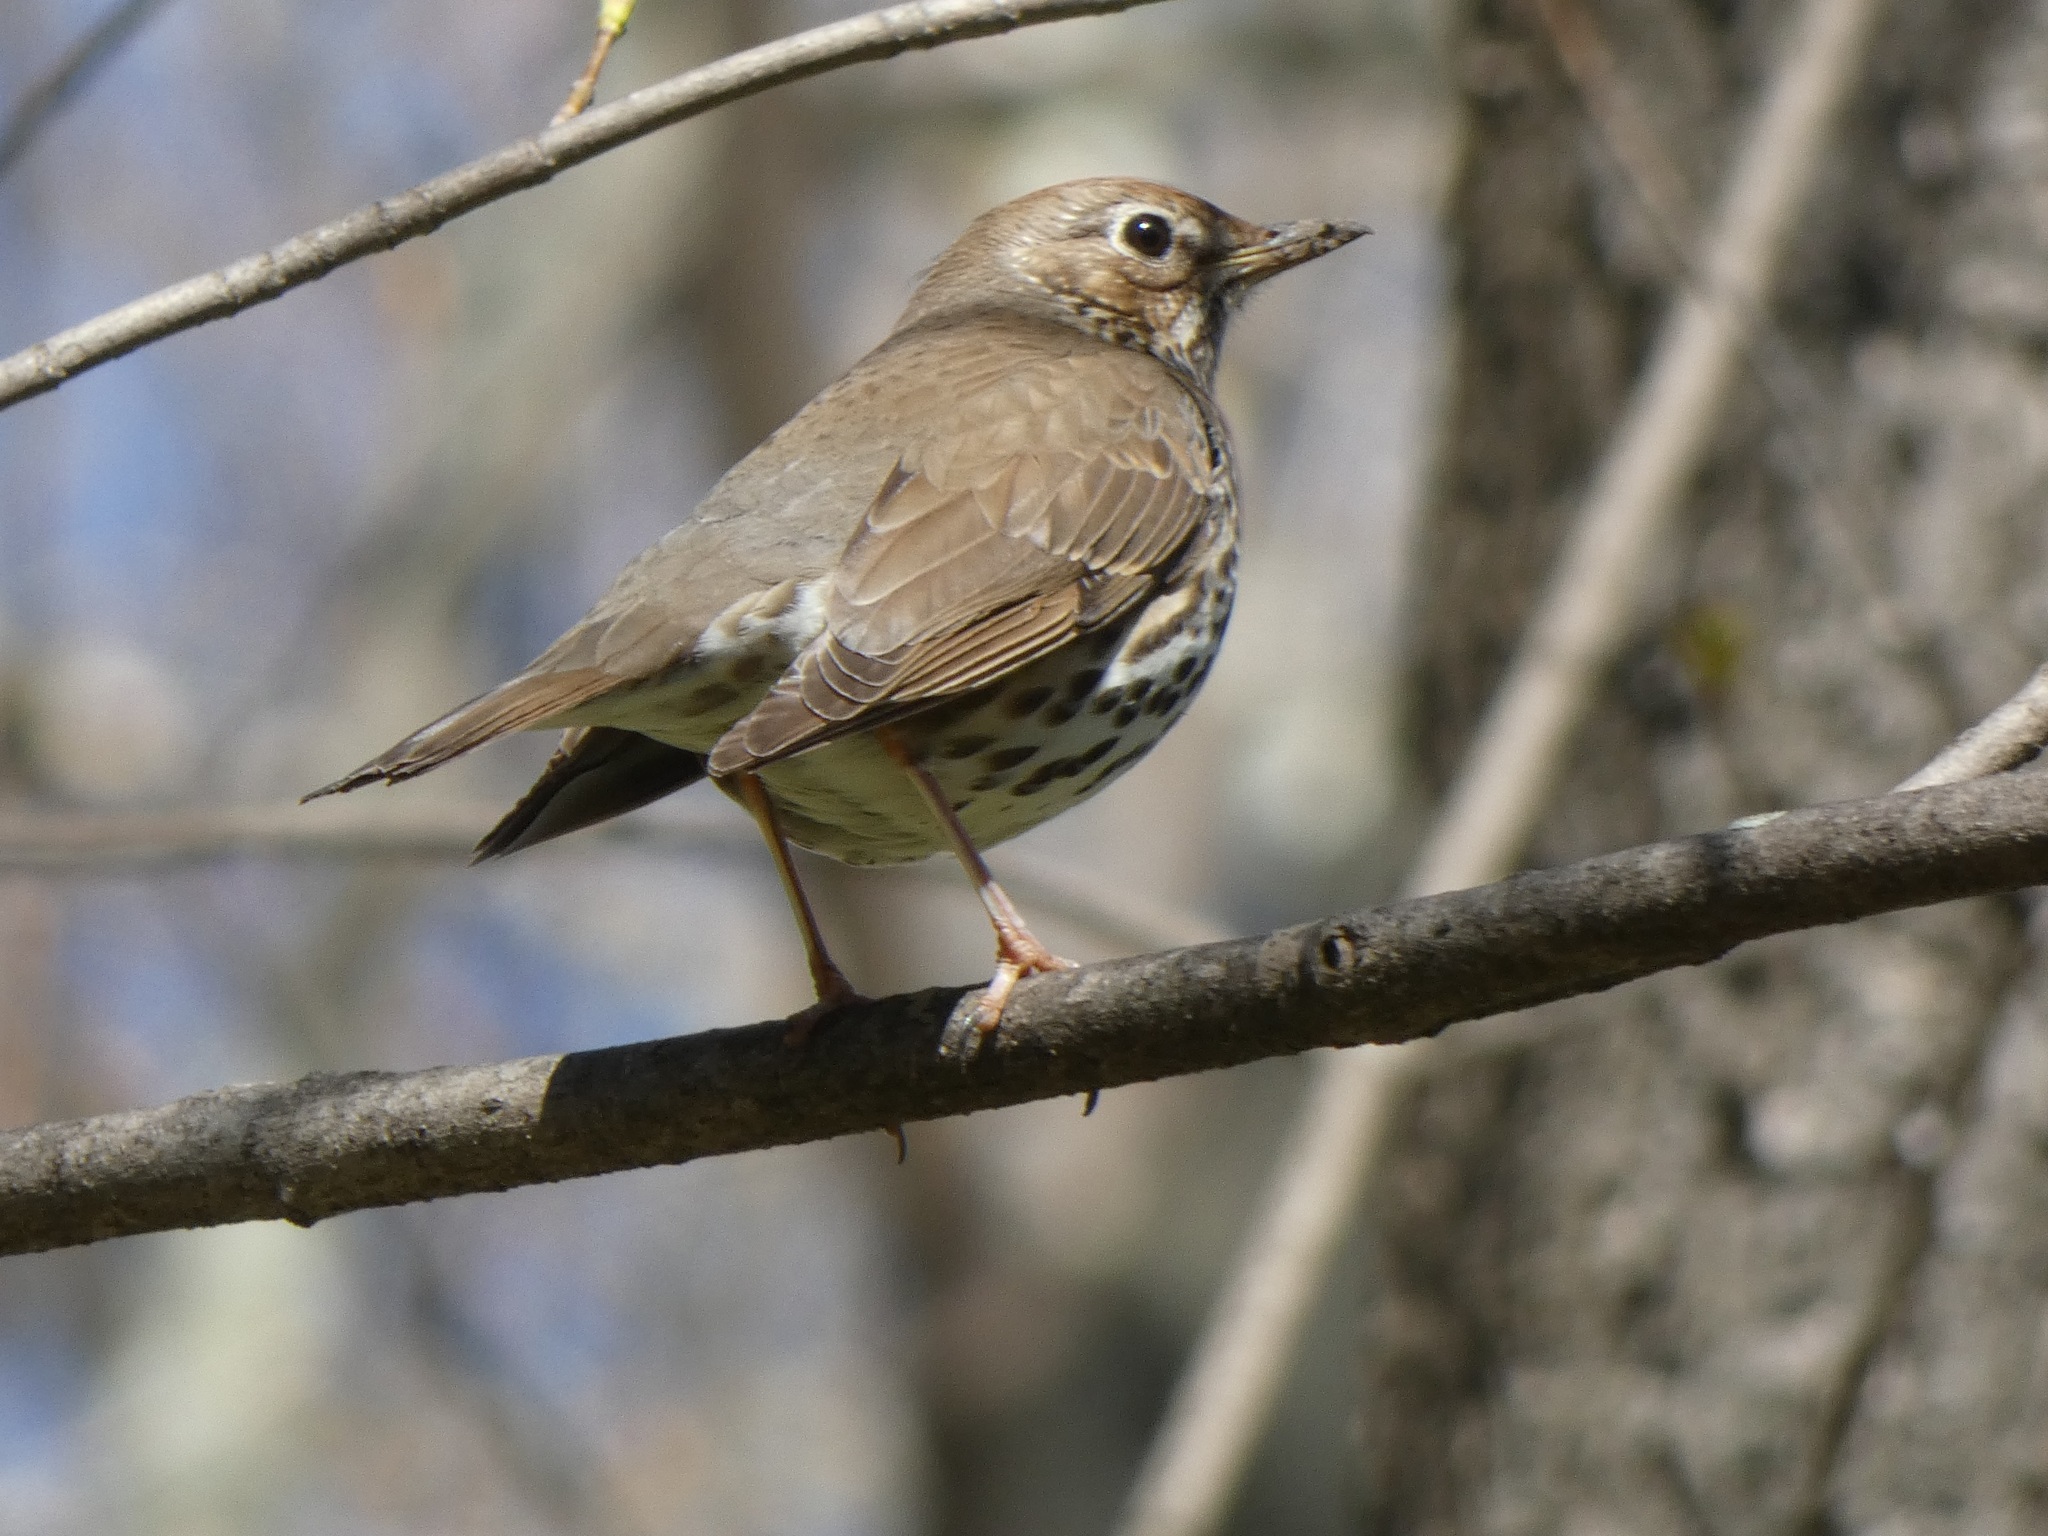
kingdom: Animalia
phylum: Chordata
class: Aves
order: Passeriformes
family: Turdidae
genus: Turdus
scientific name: Turdus philomelos
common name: Song thrush
